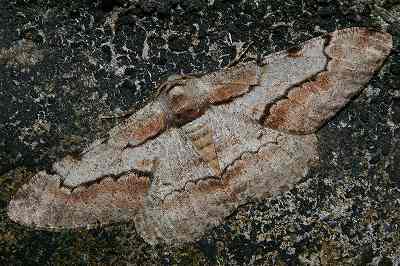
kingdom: Animalia
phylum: Arthropoda
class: Insecta
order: Lepidoptera
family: Geometridae
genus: Phthonosema
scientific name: Phthonosema tendinosaria
